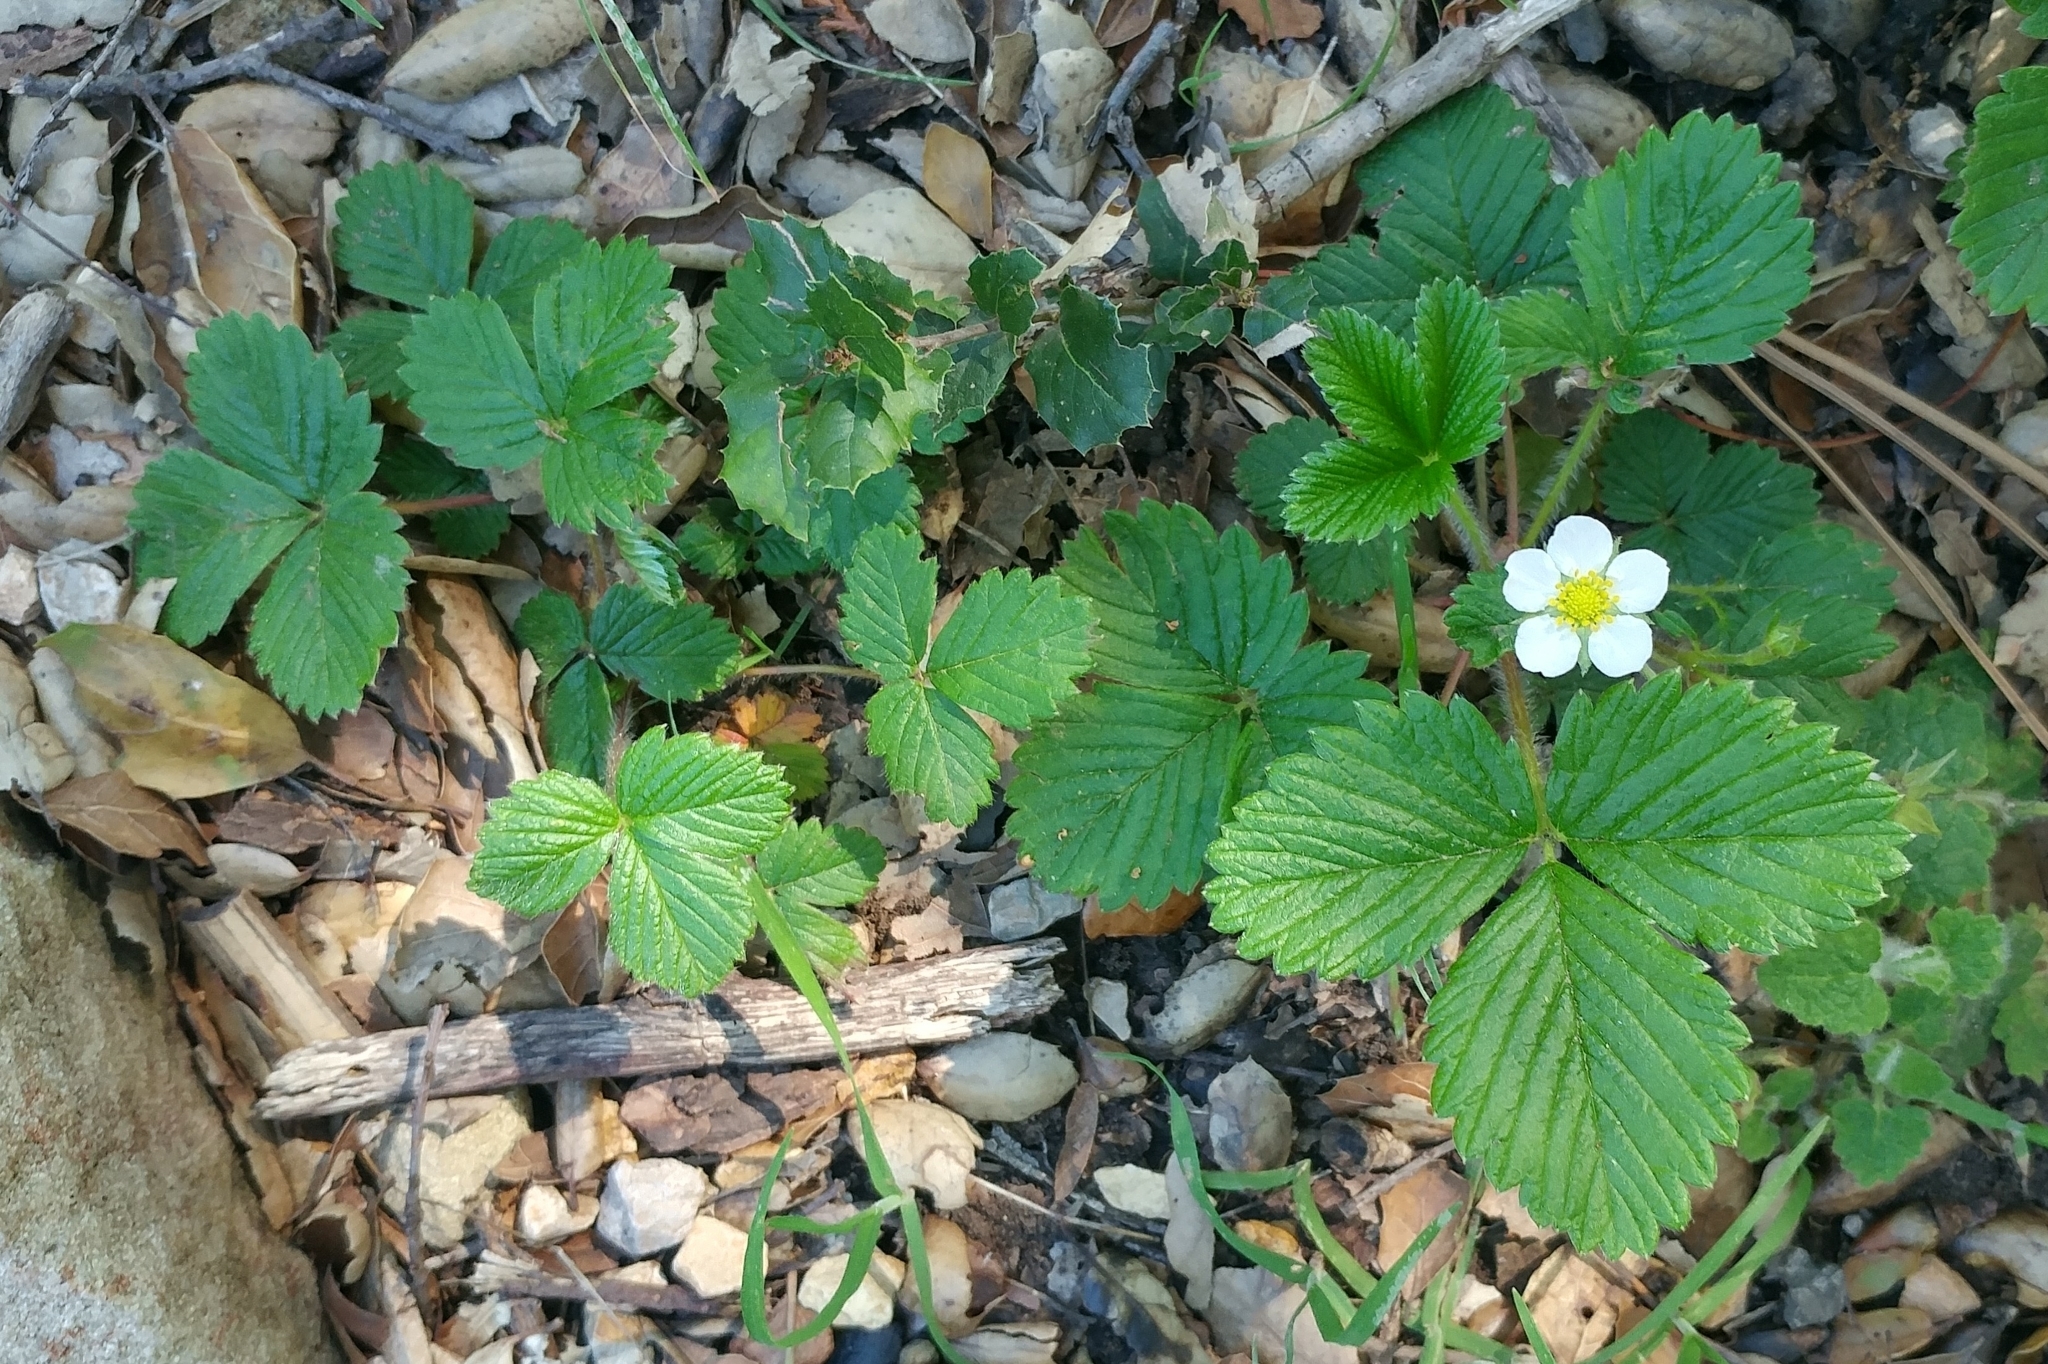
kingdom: Plantae
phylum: Tracheophyta
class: Magnoliopsida
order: Rosales
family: Rosaceae
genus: Fragaria
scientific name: Fragaria vesca
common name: Wild strawberry
